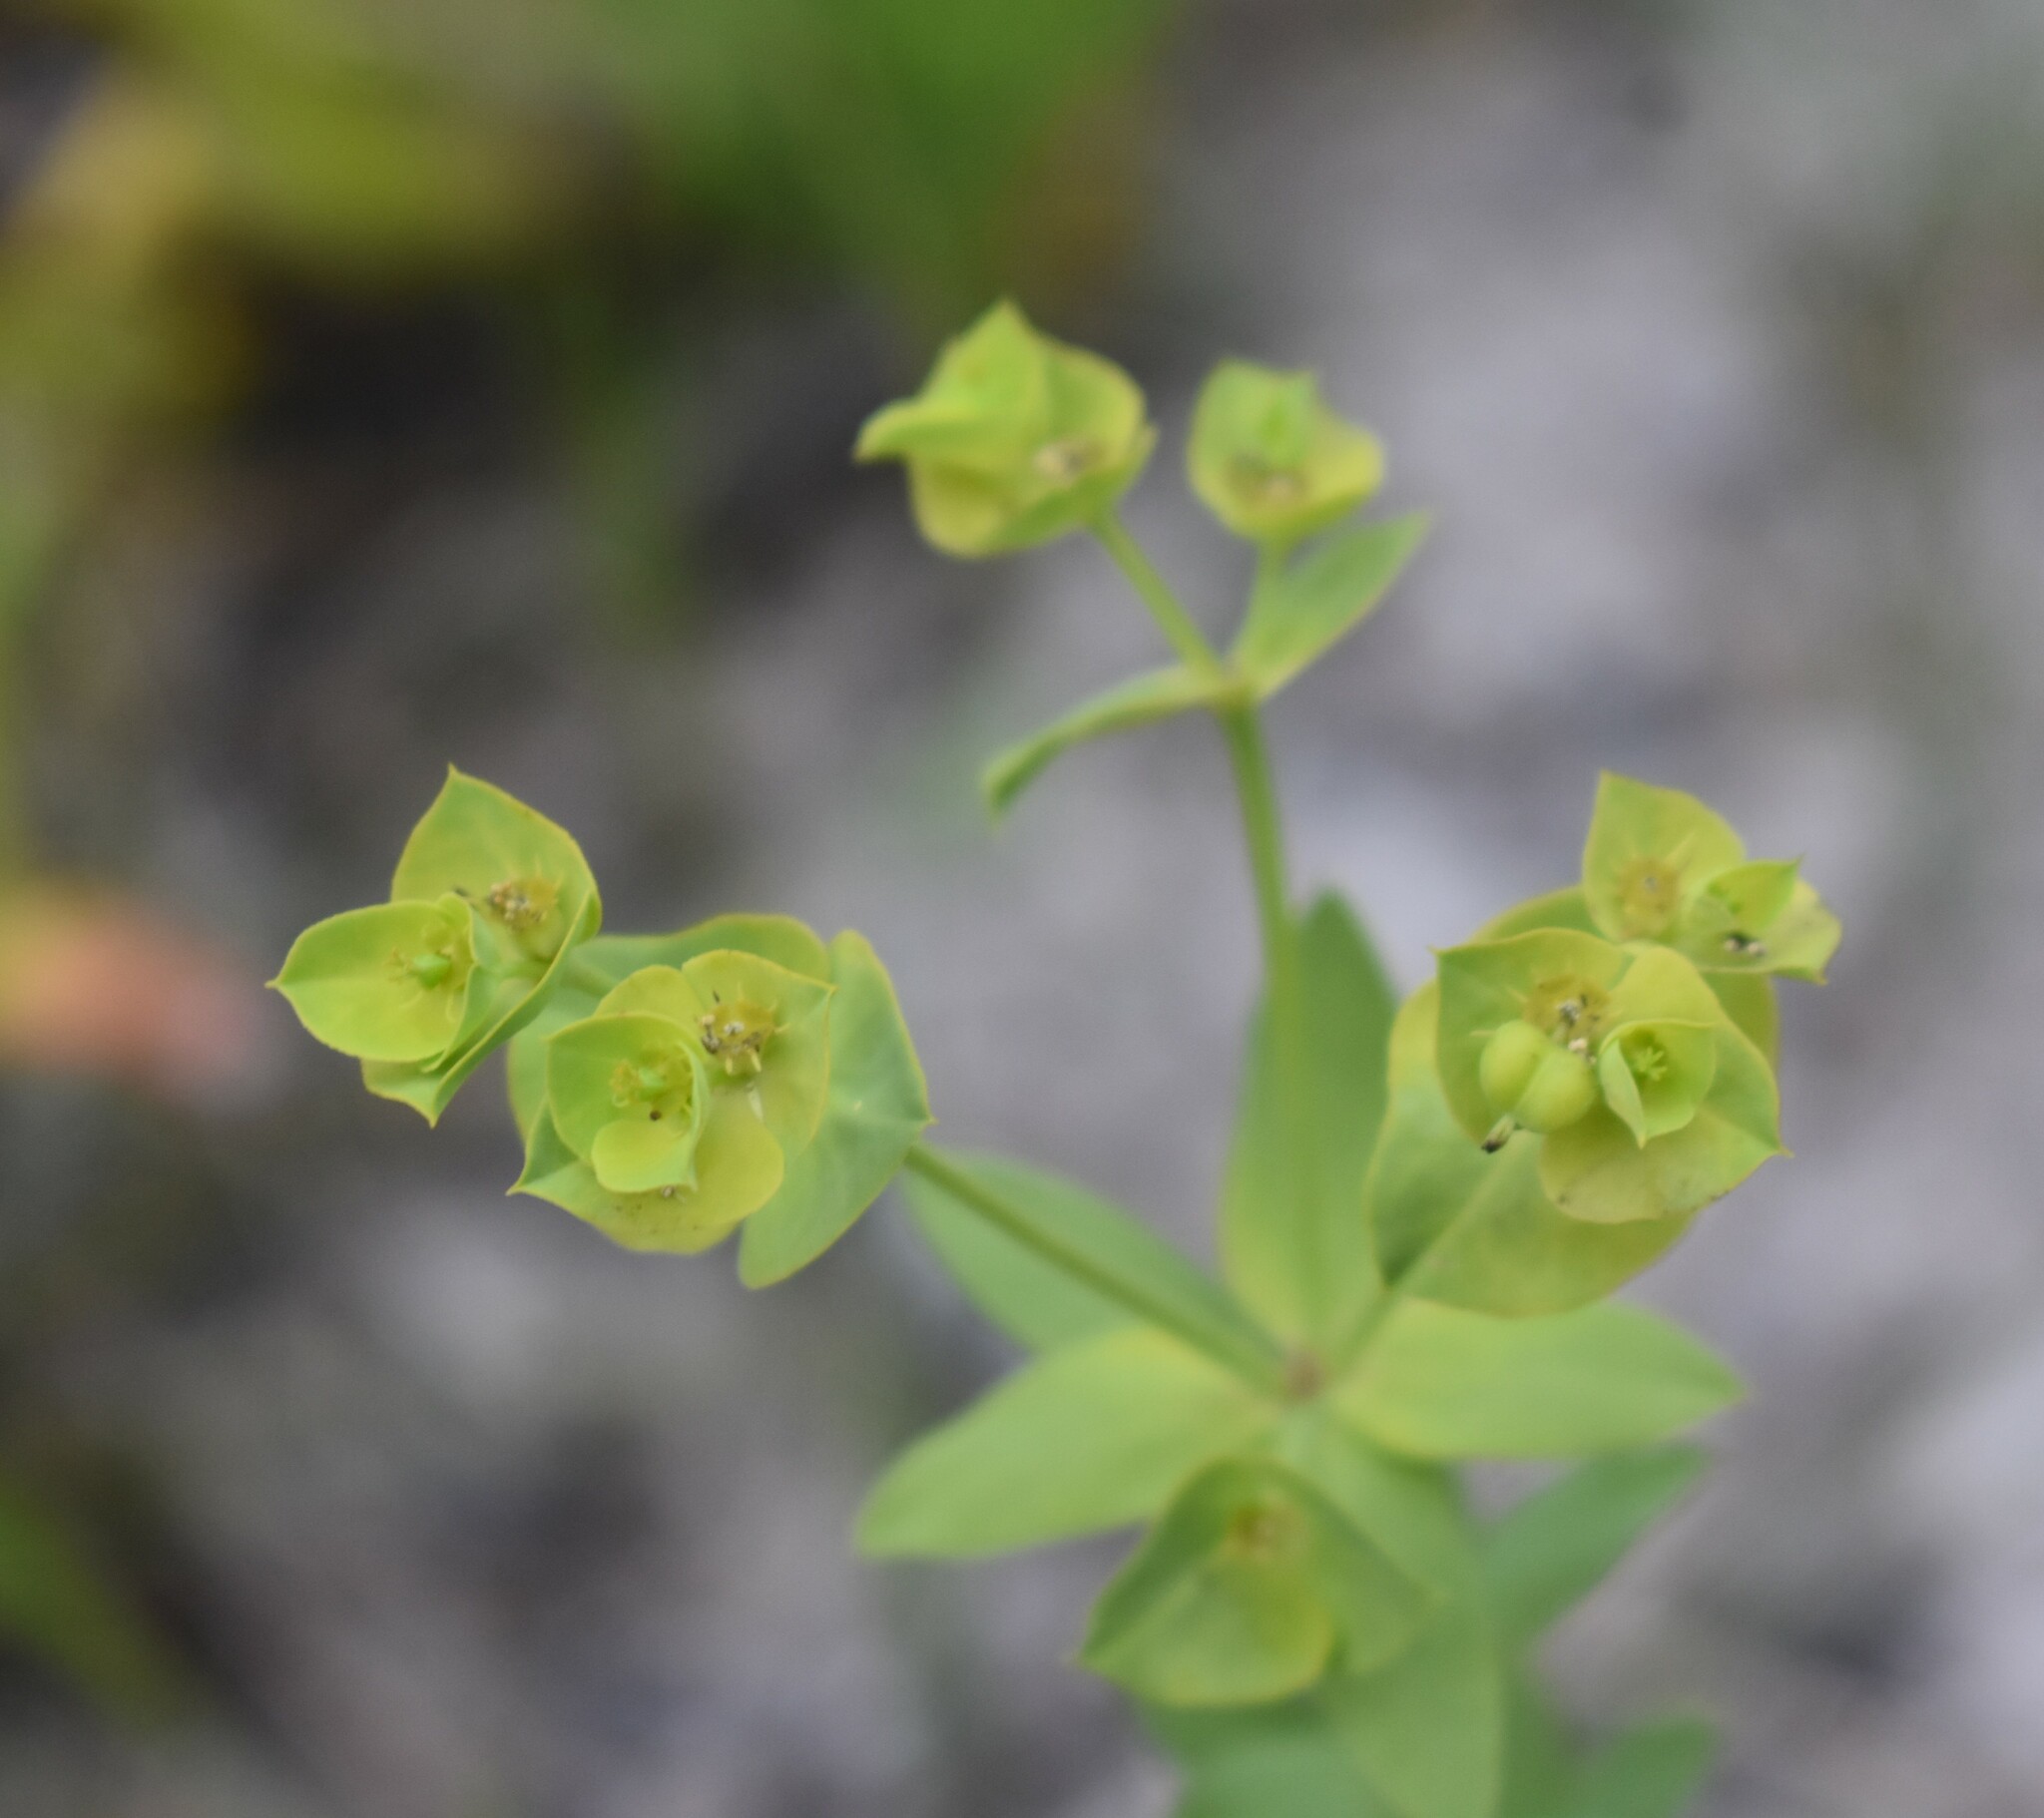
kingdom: Plantae
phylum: Tracheophyta
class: Magnoliopsida
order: Malpighiales
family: Euphorbiaceae
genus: Euphorbia
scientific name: Euphorbia terracina
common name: Geraldton carnation weed
